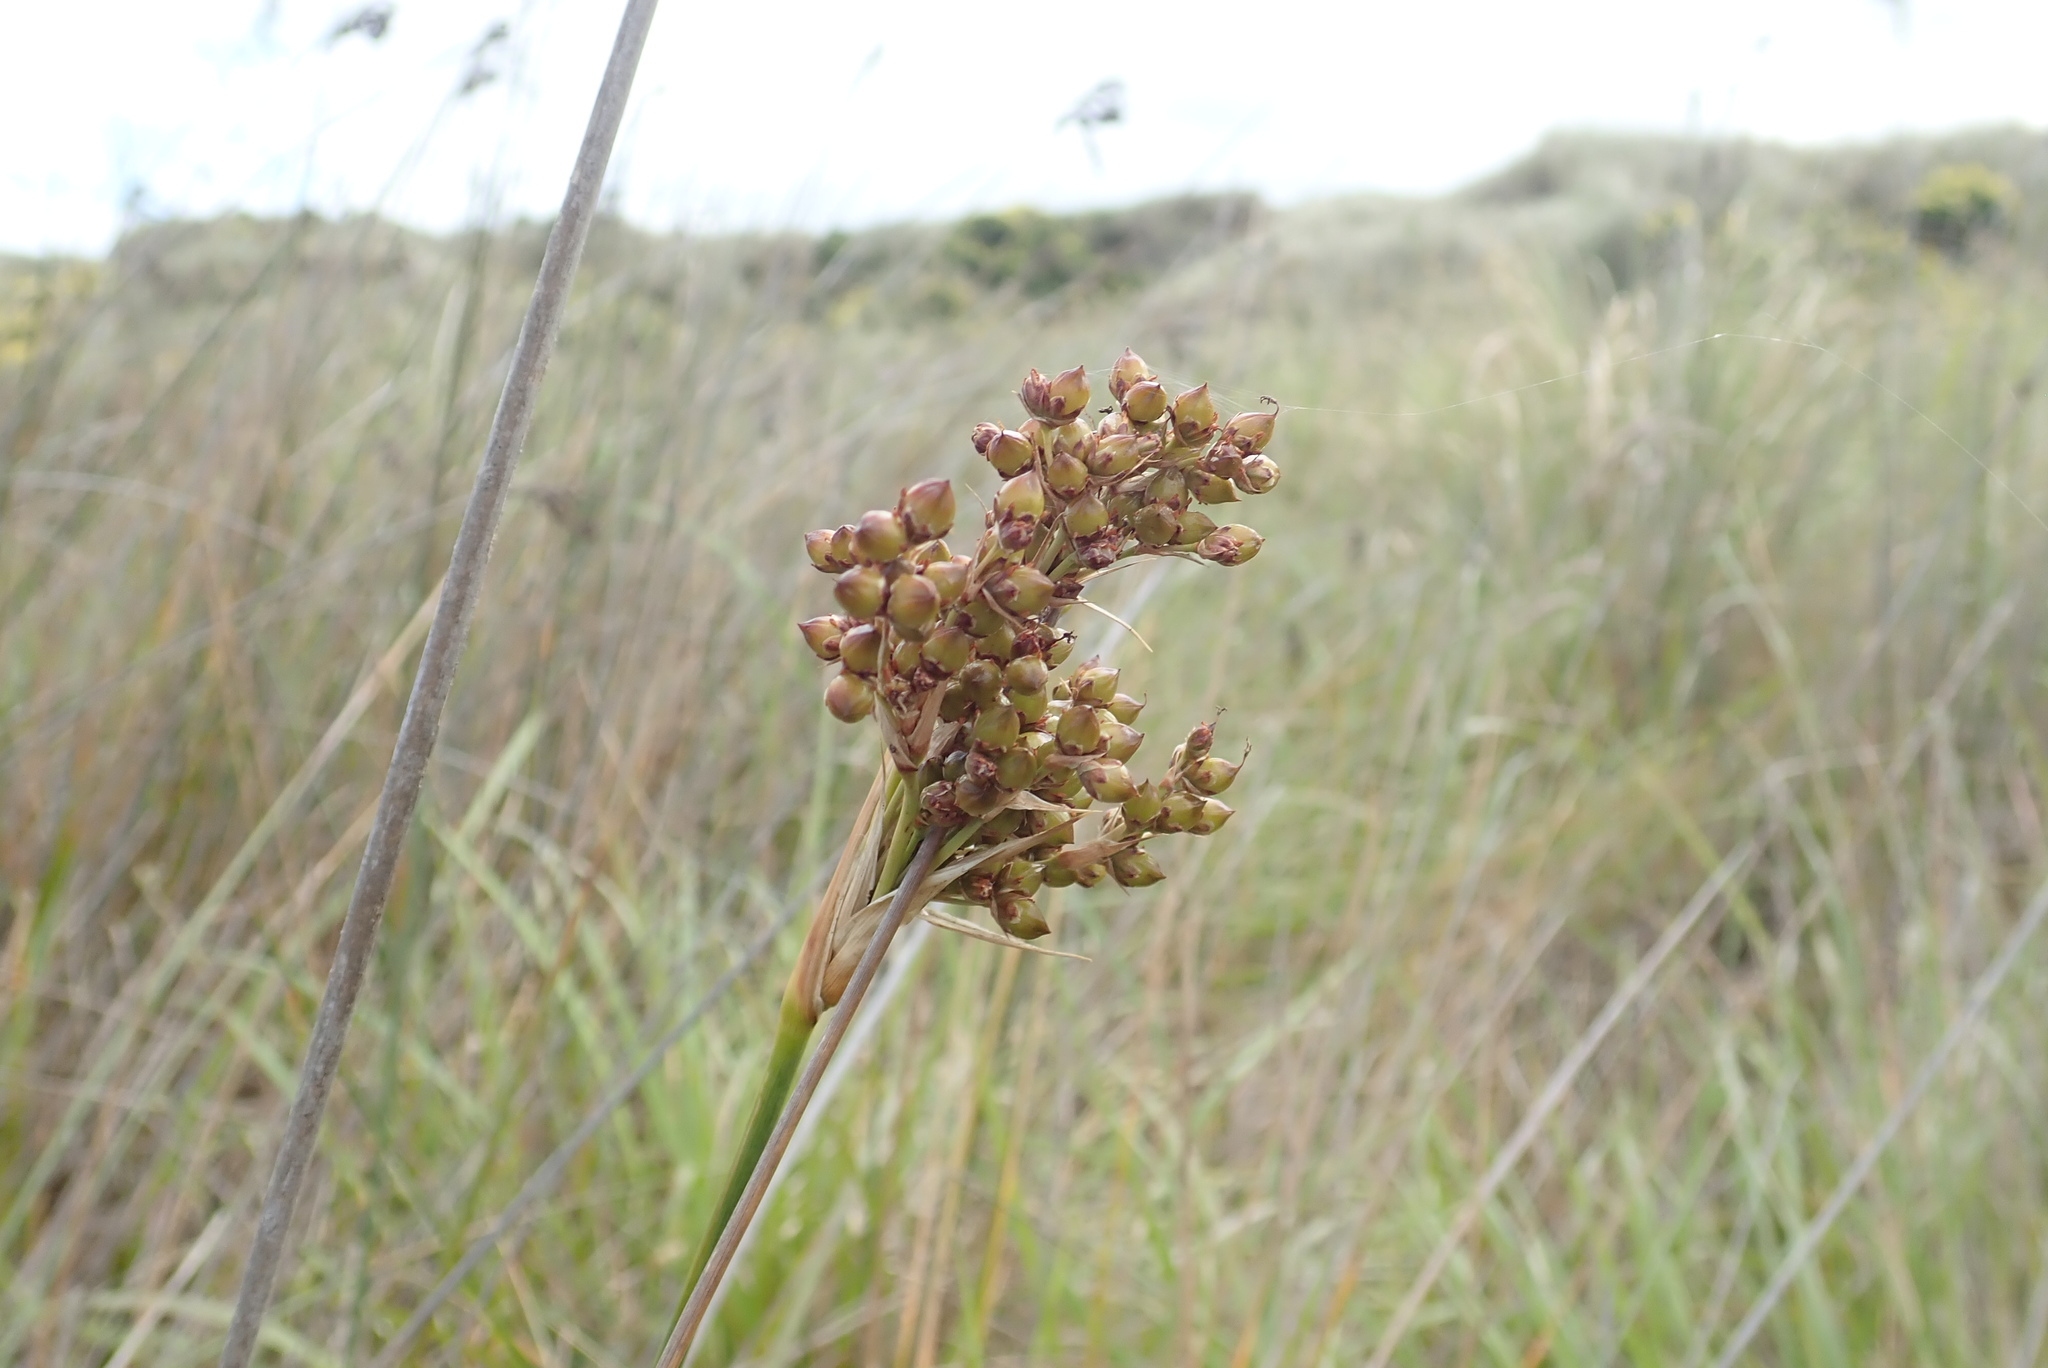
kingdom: Plantae
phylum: Tracheophyta
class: Liliopsida
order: Poales
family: Juncaceae
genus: Juncus
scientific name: Juncus acutus
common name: Sharp rush
